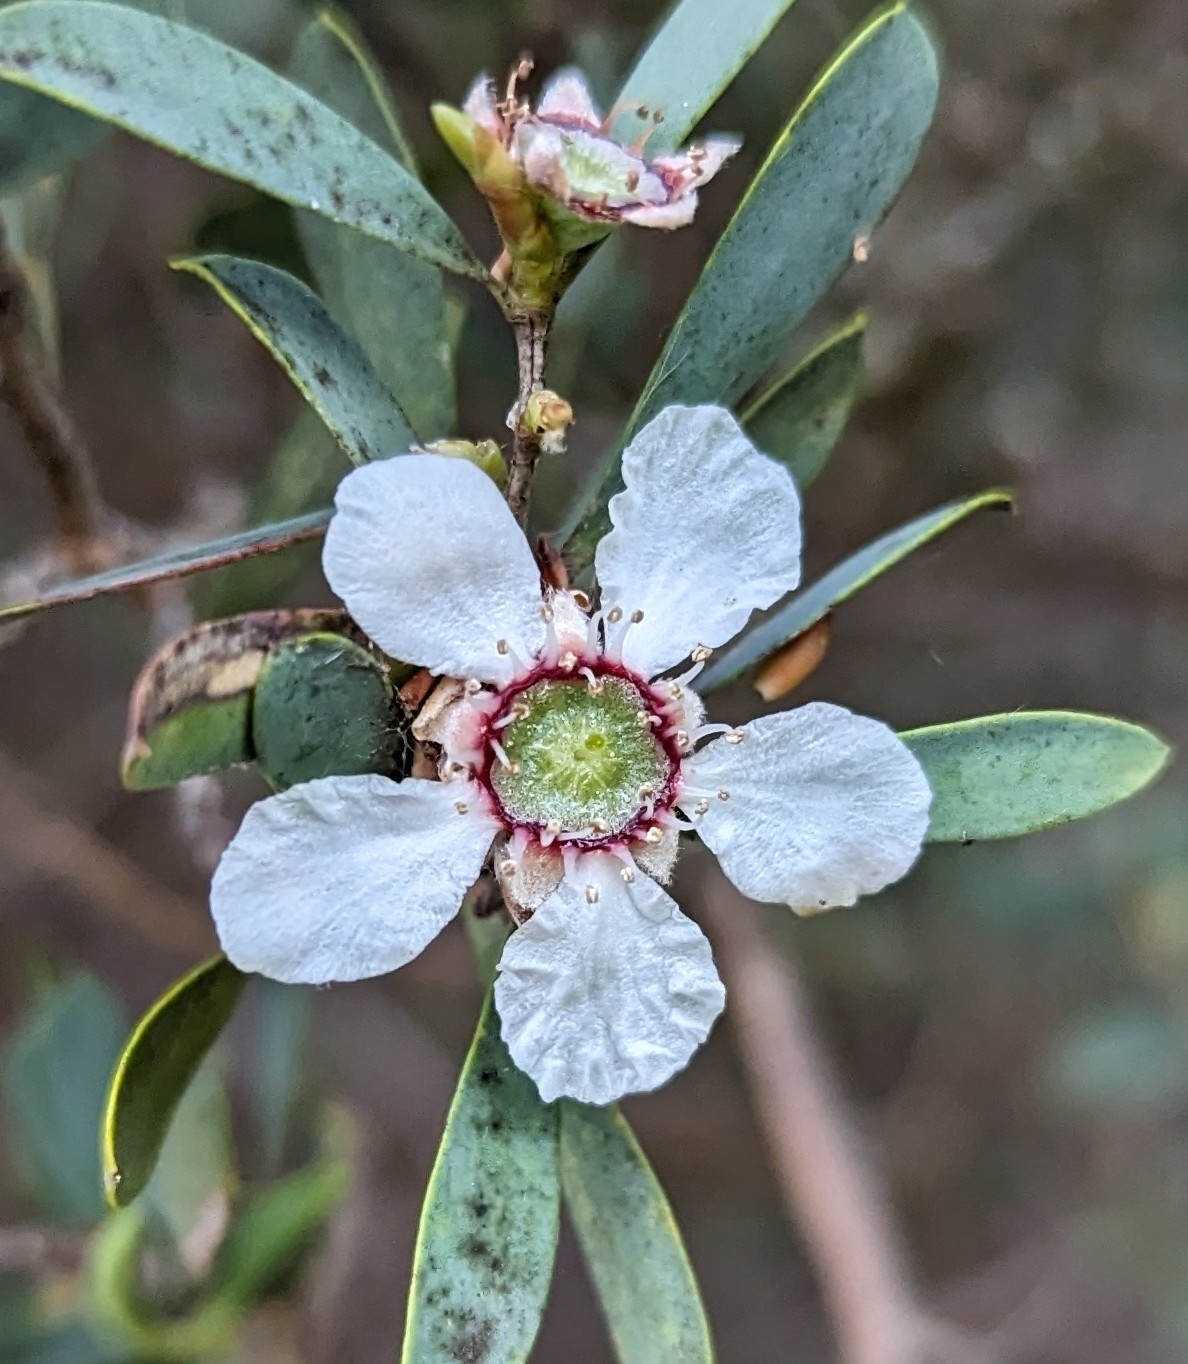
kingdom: Plantae
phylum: Tracheophyta
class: Magnoliopsida
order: Myrtales
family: Myrtaceae
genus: Leptospermum
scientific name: Leptospermum laevigatum
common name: Australian teatree
